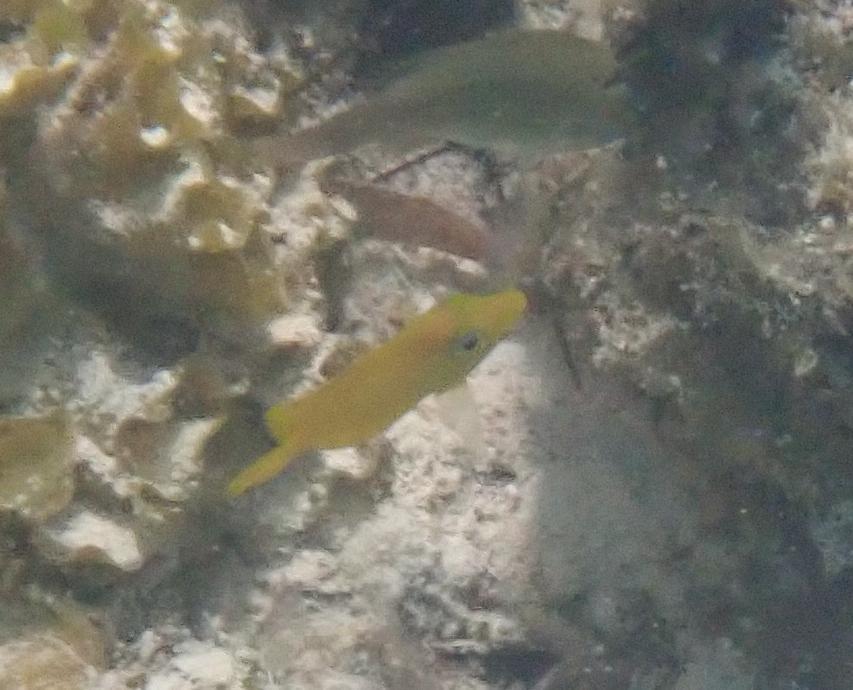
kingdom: Animalia
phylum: Chordata
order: Perciformes
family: Acanthuridae
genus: Acanthurus
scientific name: Acanthurus coeruleus
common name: Blue tang
